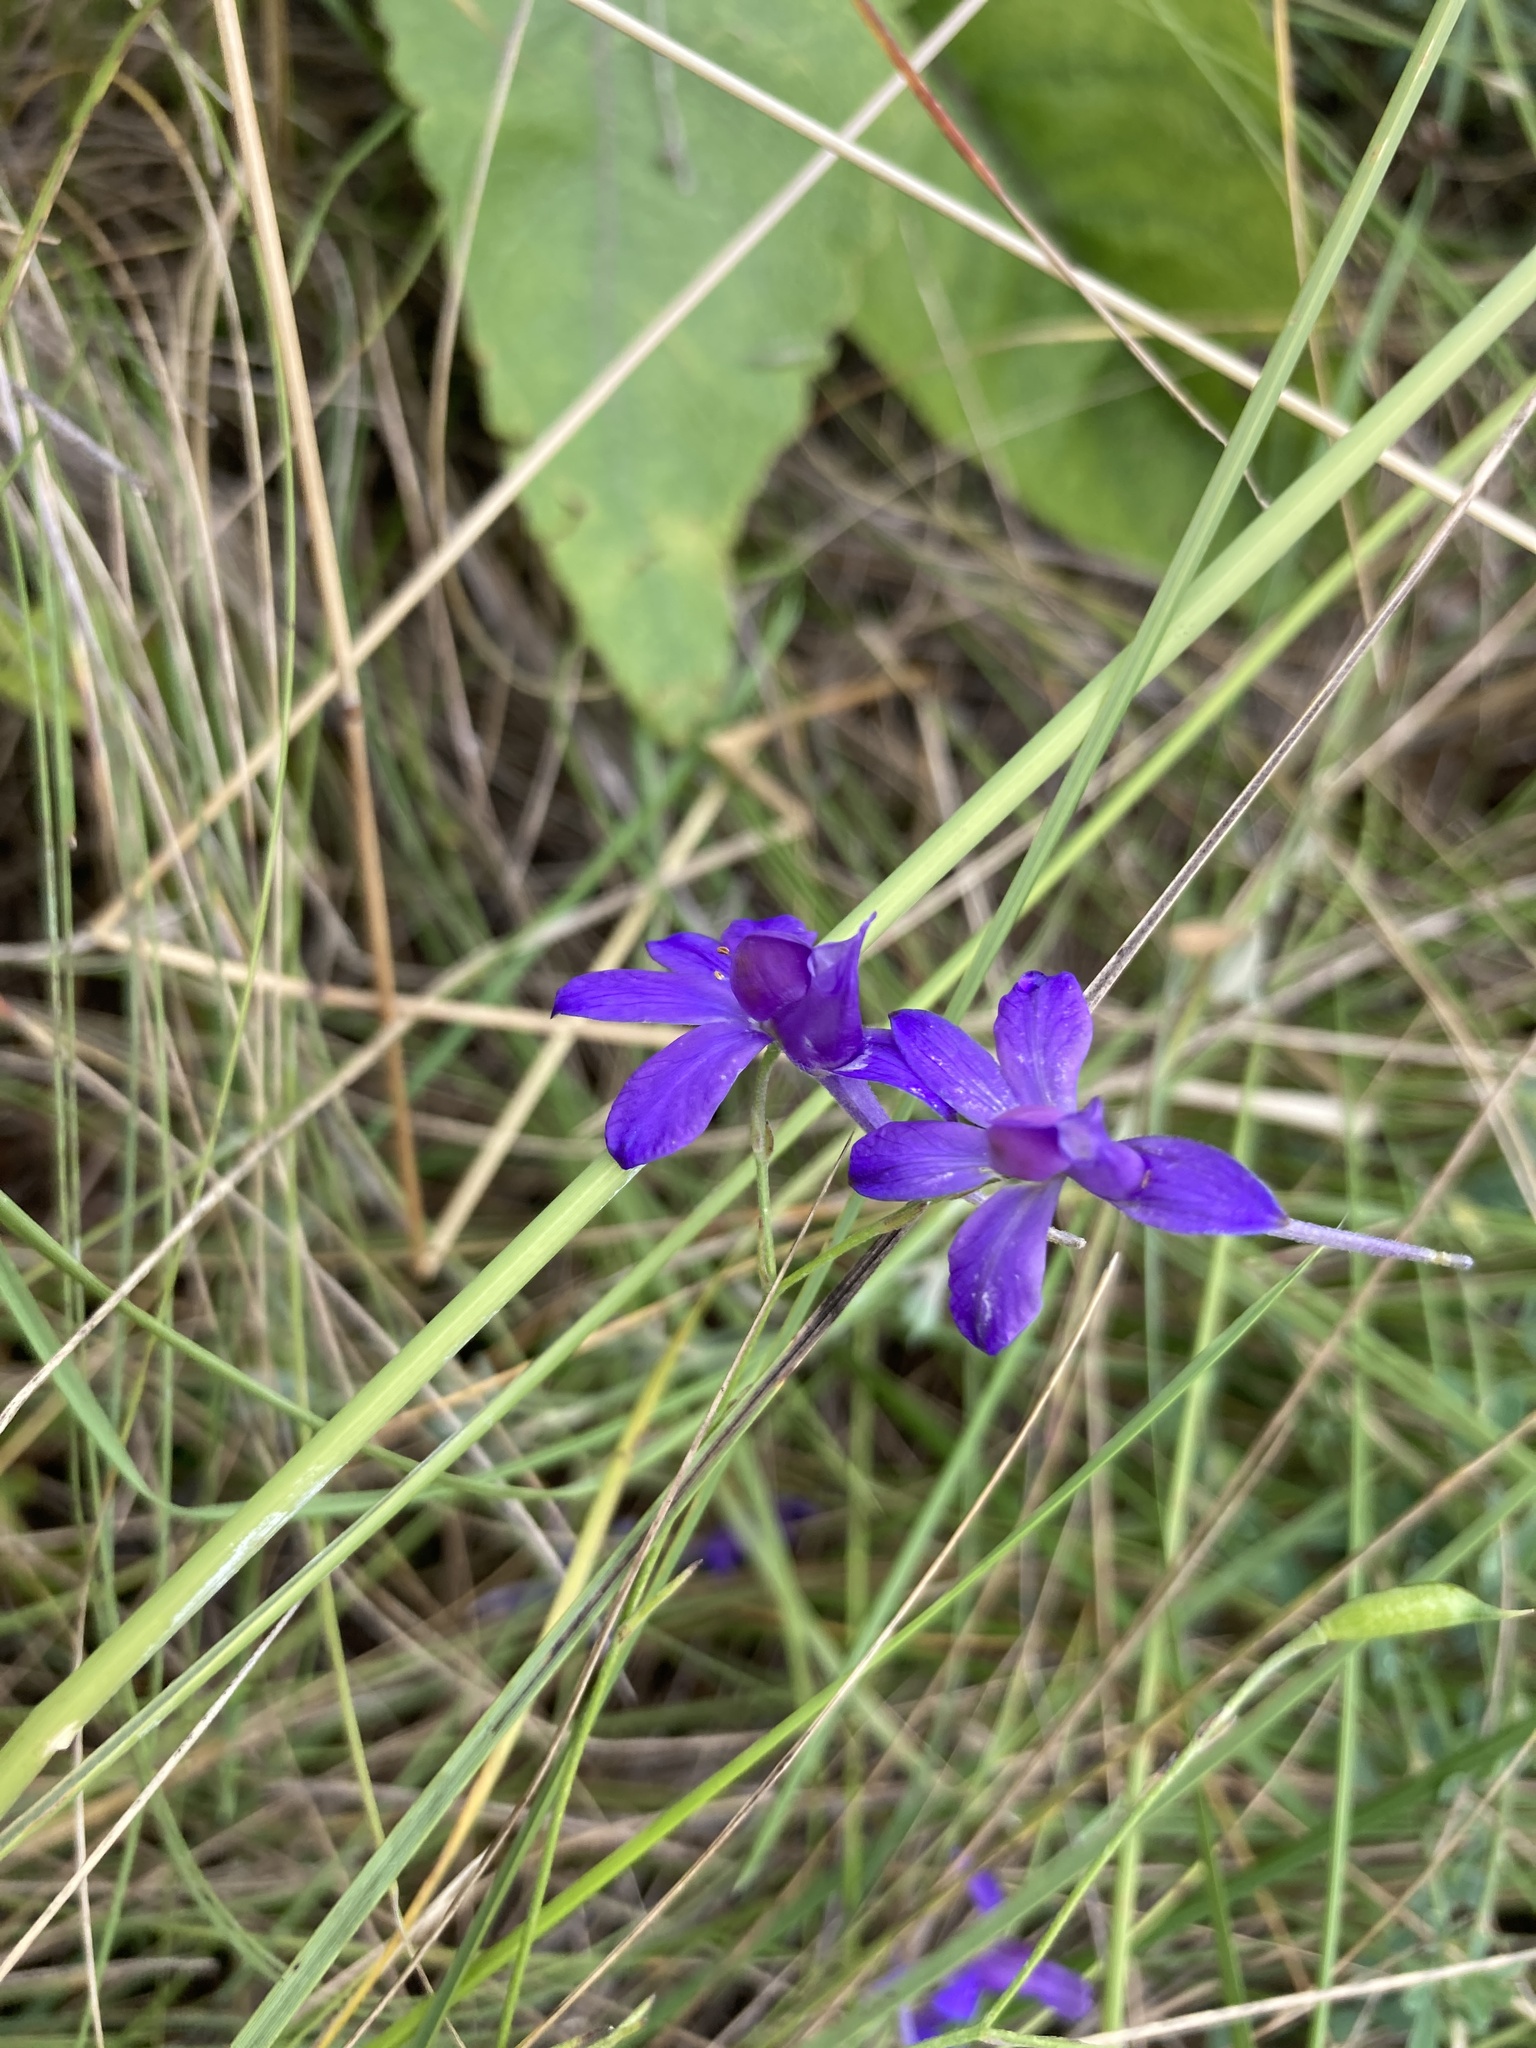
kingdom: Plantae
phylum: Tracheophyta
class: Magnoliopsida
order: Ranunculales
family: Ranunculaceae
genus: Delphinium
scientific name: Delphinium consolida
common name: Branching larkspur
